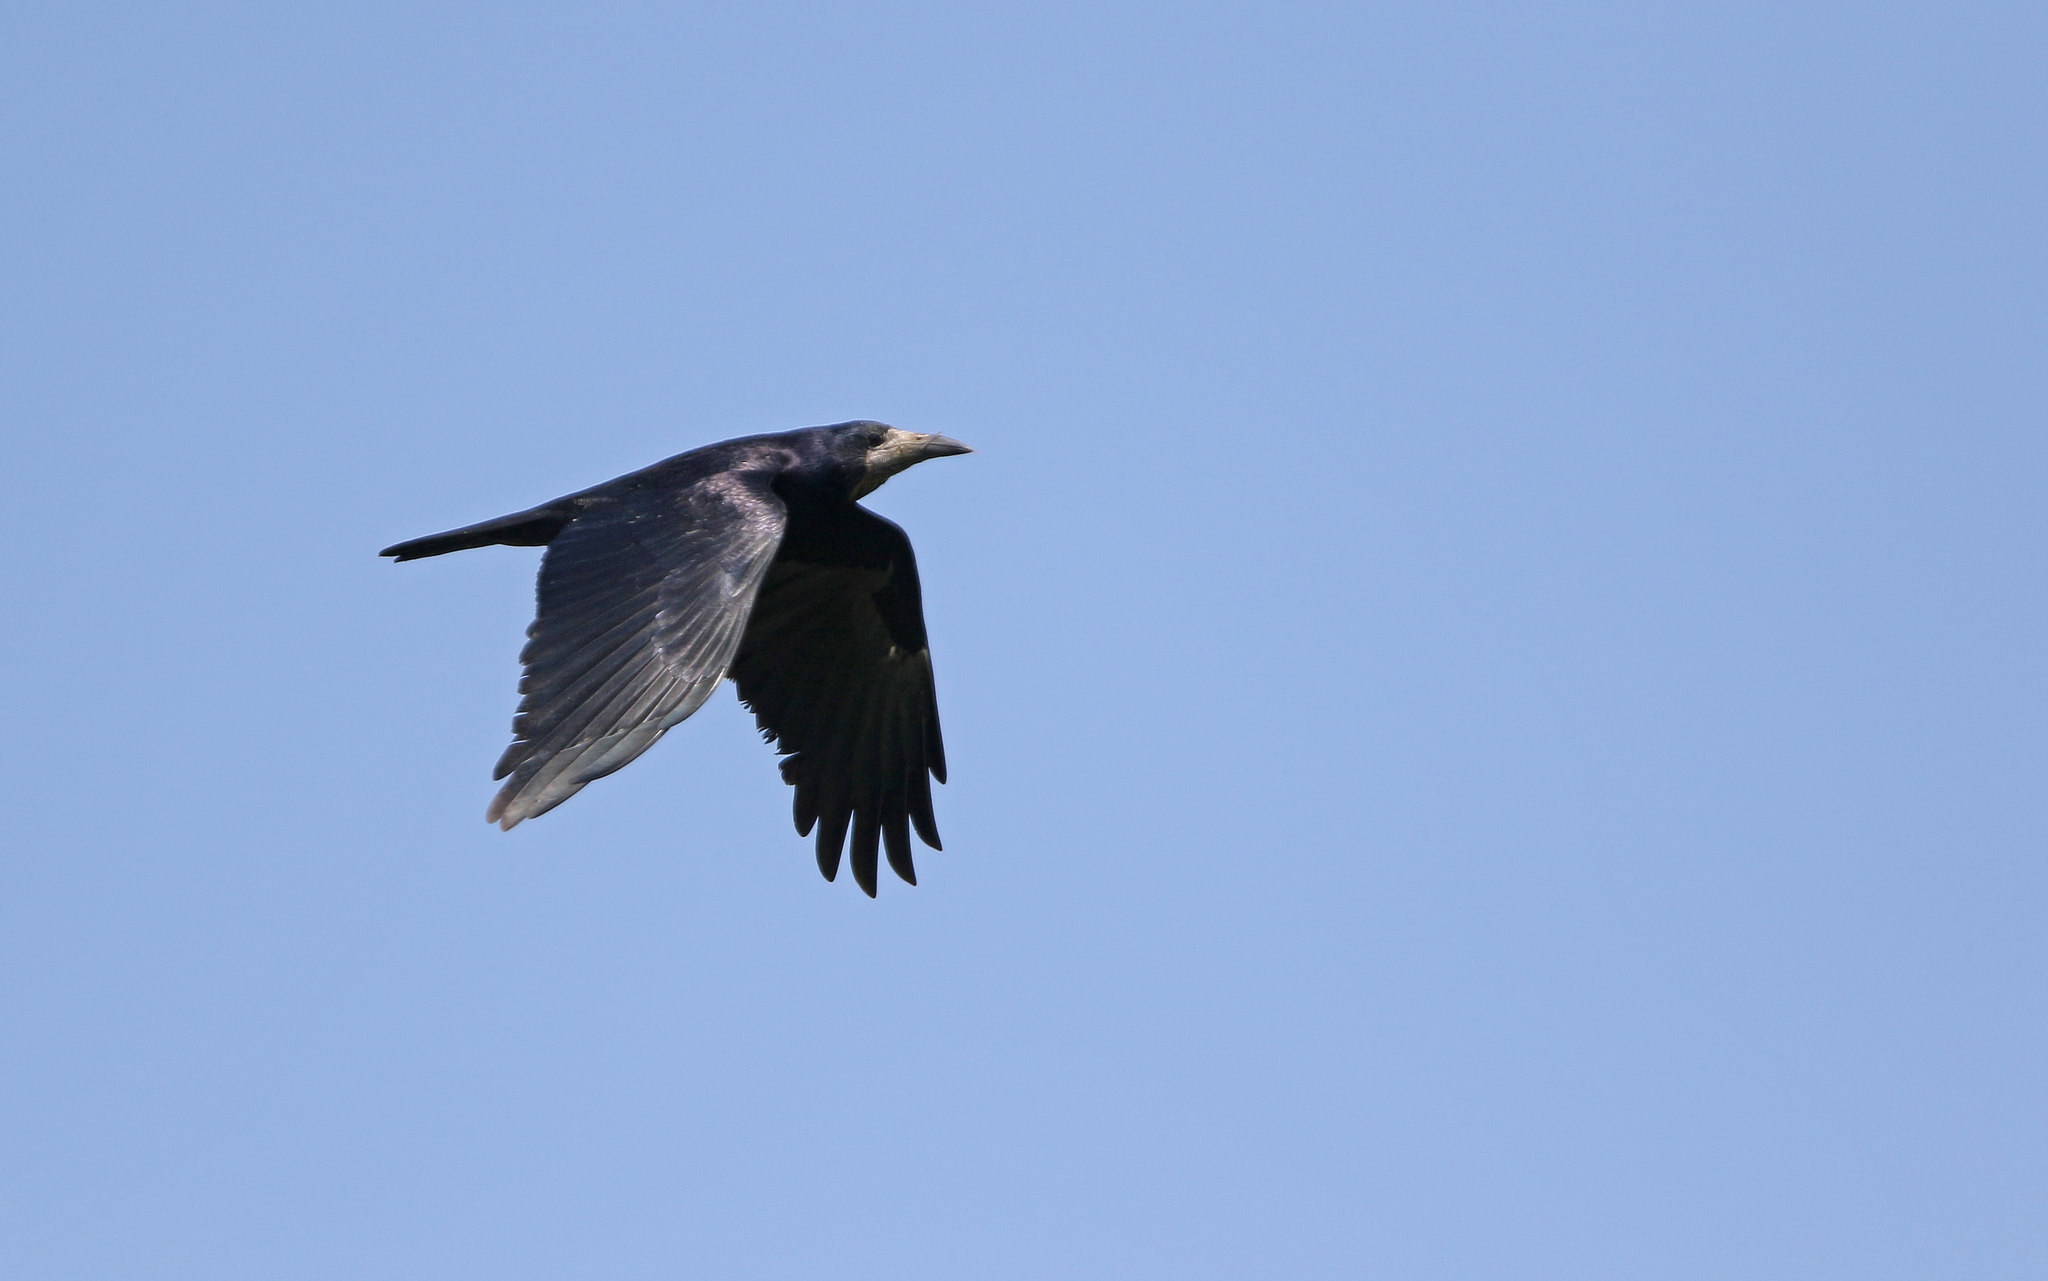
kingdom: Animalia
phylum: Chordata
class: Aves
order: Passeriformes
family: Corvidae
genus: Corvus
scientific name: Corvus frugilegus
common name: Rook
